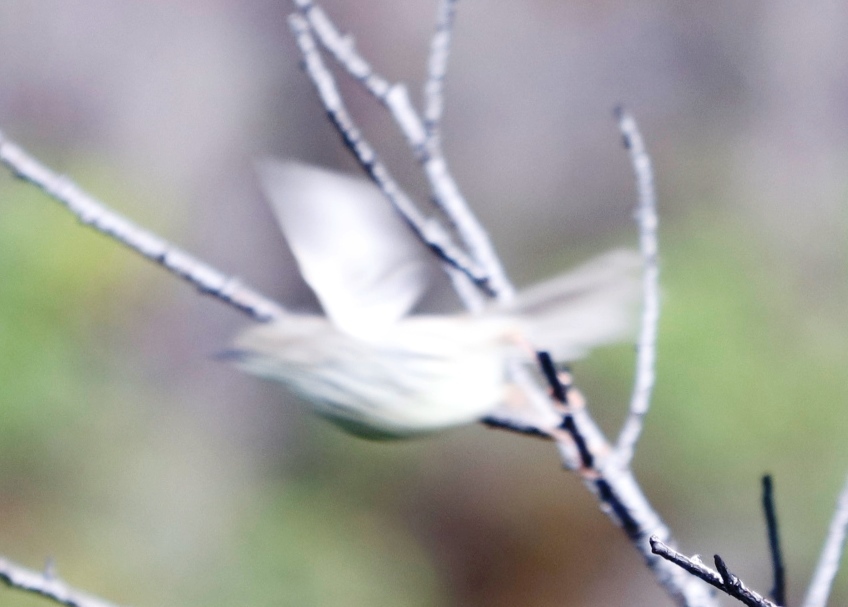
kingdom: Animalia
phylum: Chordata
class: Aves
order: Passeriformes
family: Cisticolidae
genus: Prinia
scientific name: Prinia maculosa
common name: Karoo prinia
